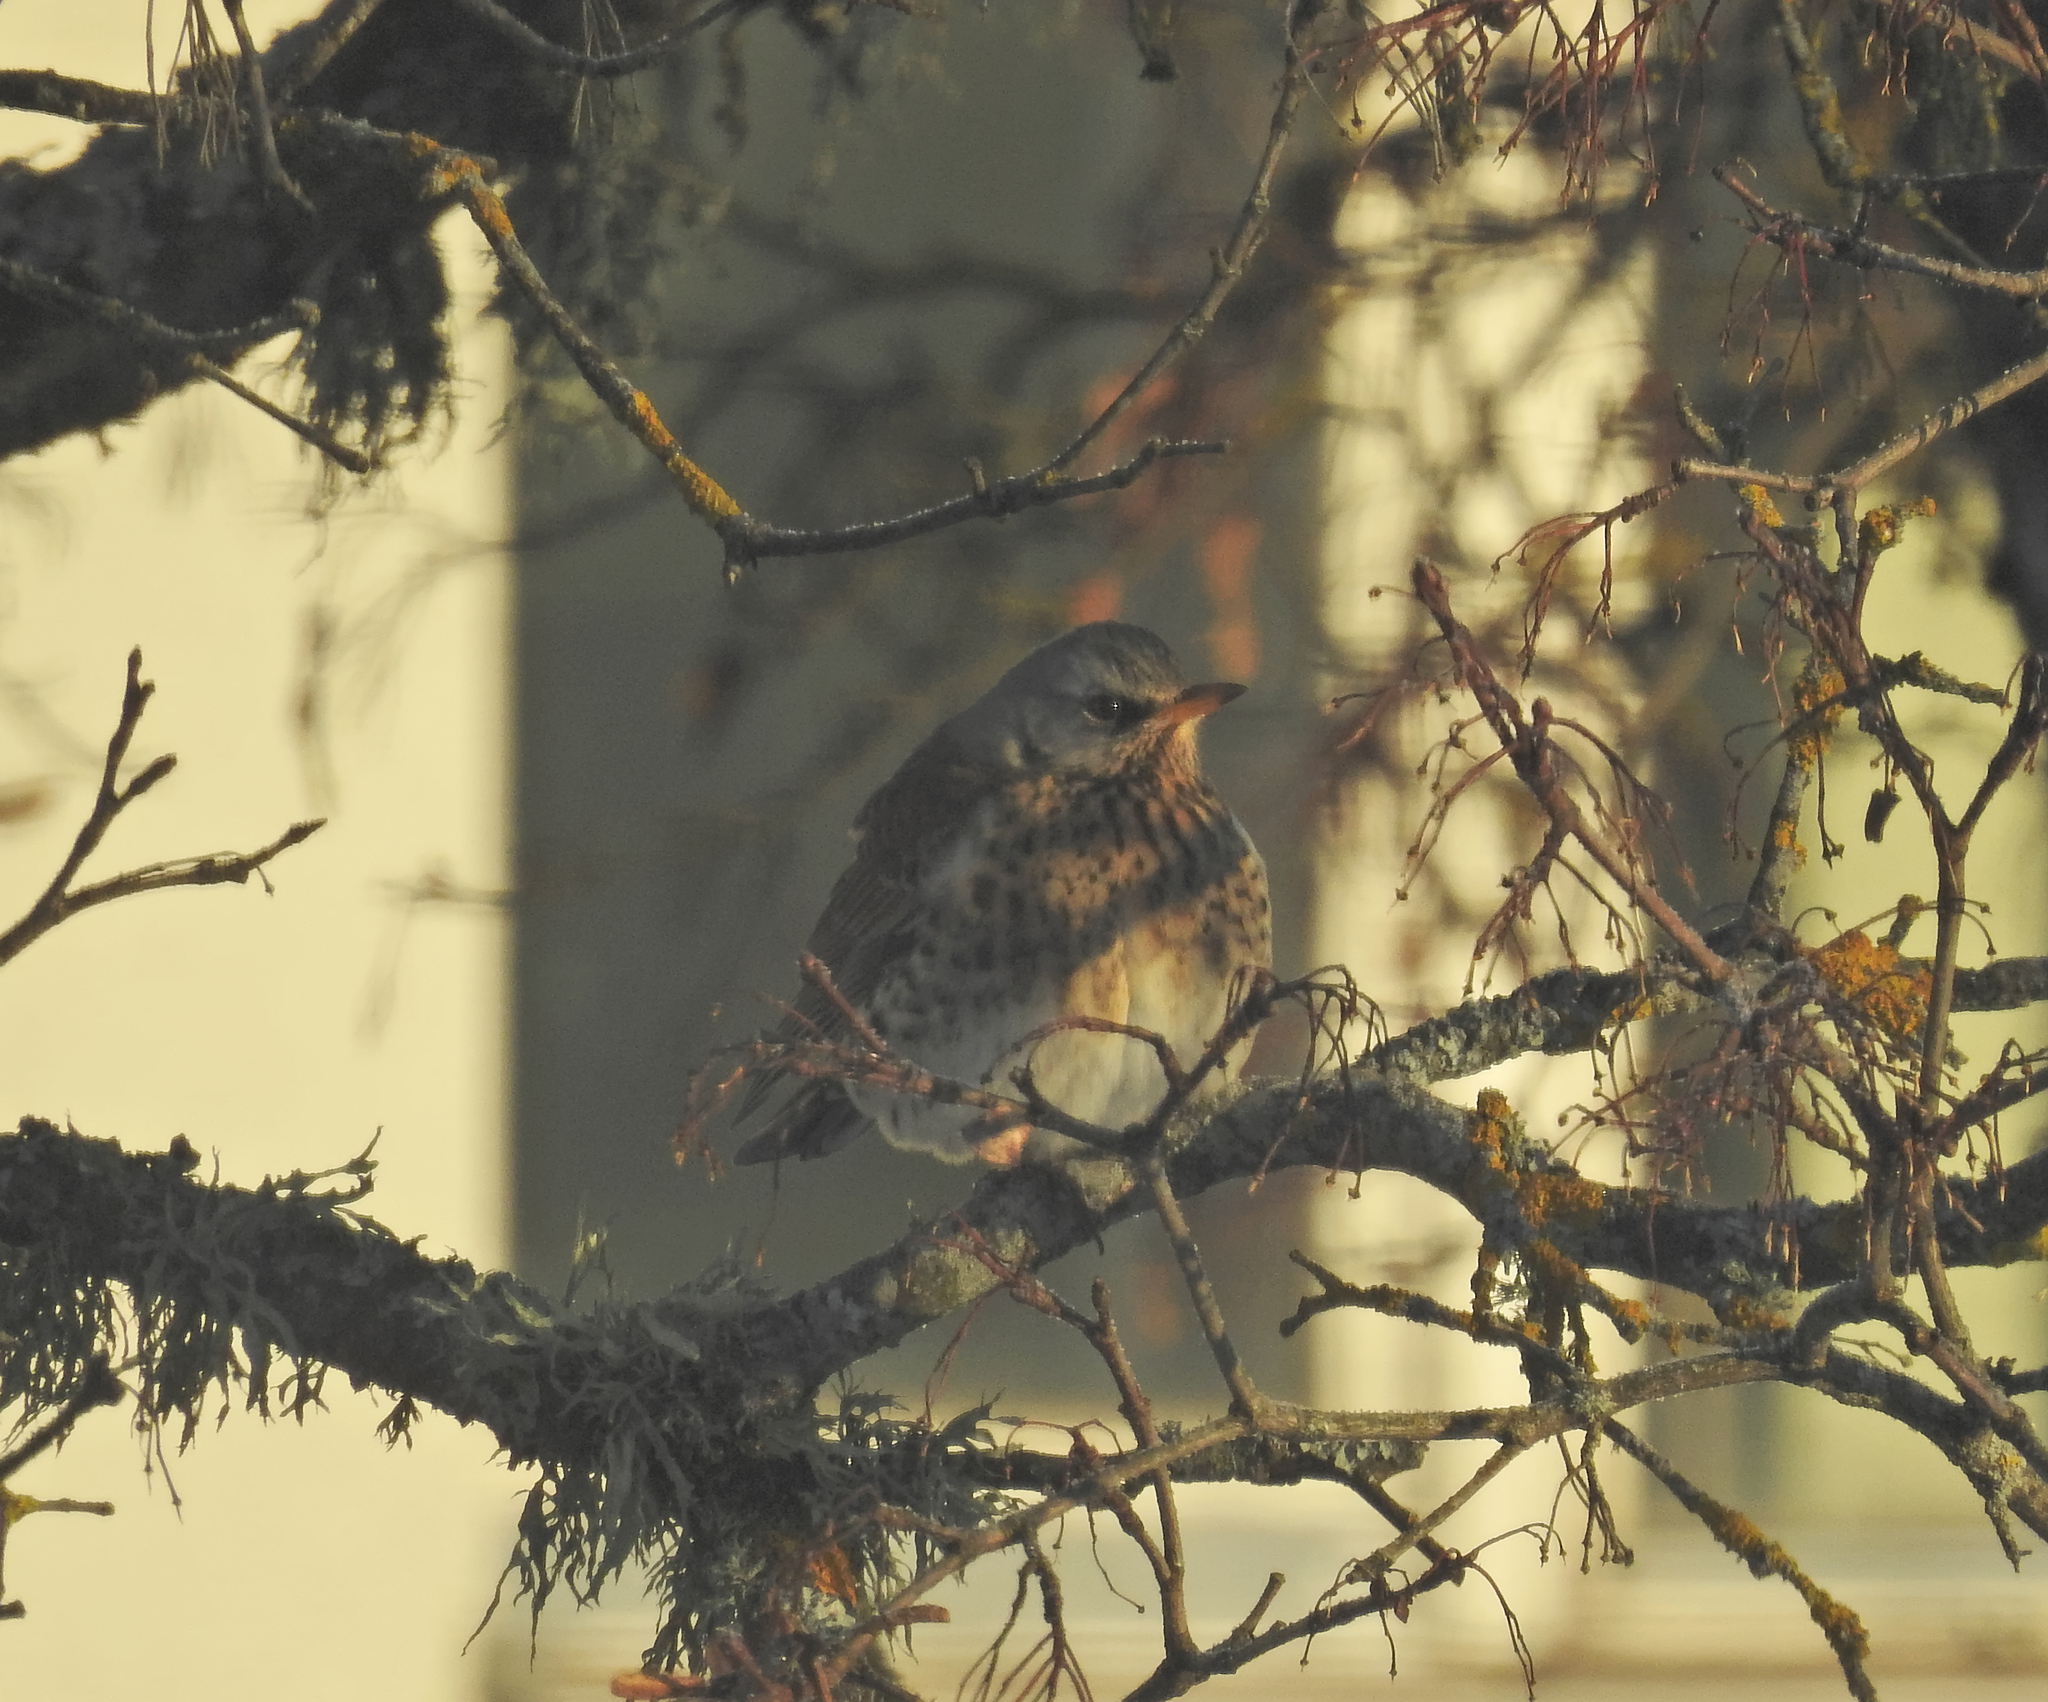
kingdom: Animalia
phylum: Chordata
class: Aves
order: Passeriformes
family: Turdidae
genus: Turdus
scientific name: Turdus pilaris
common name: Fieldfare
